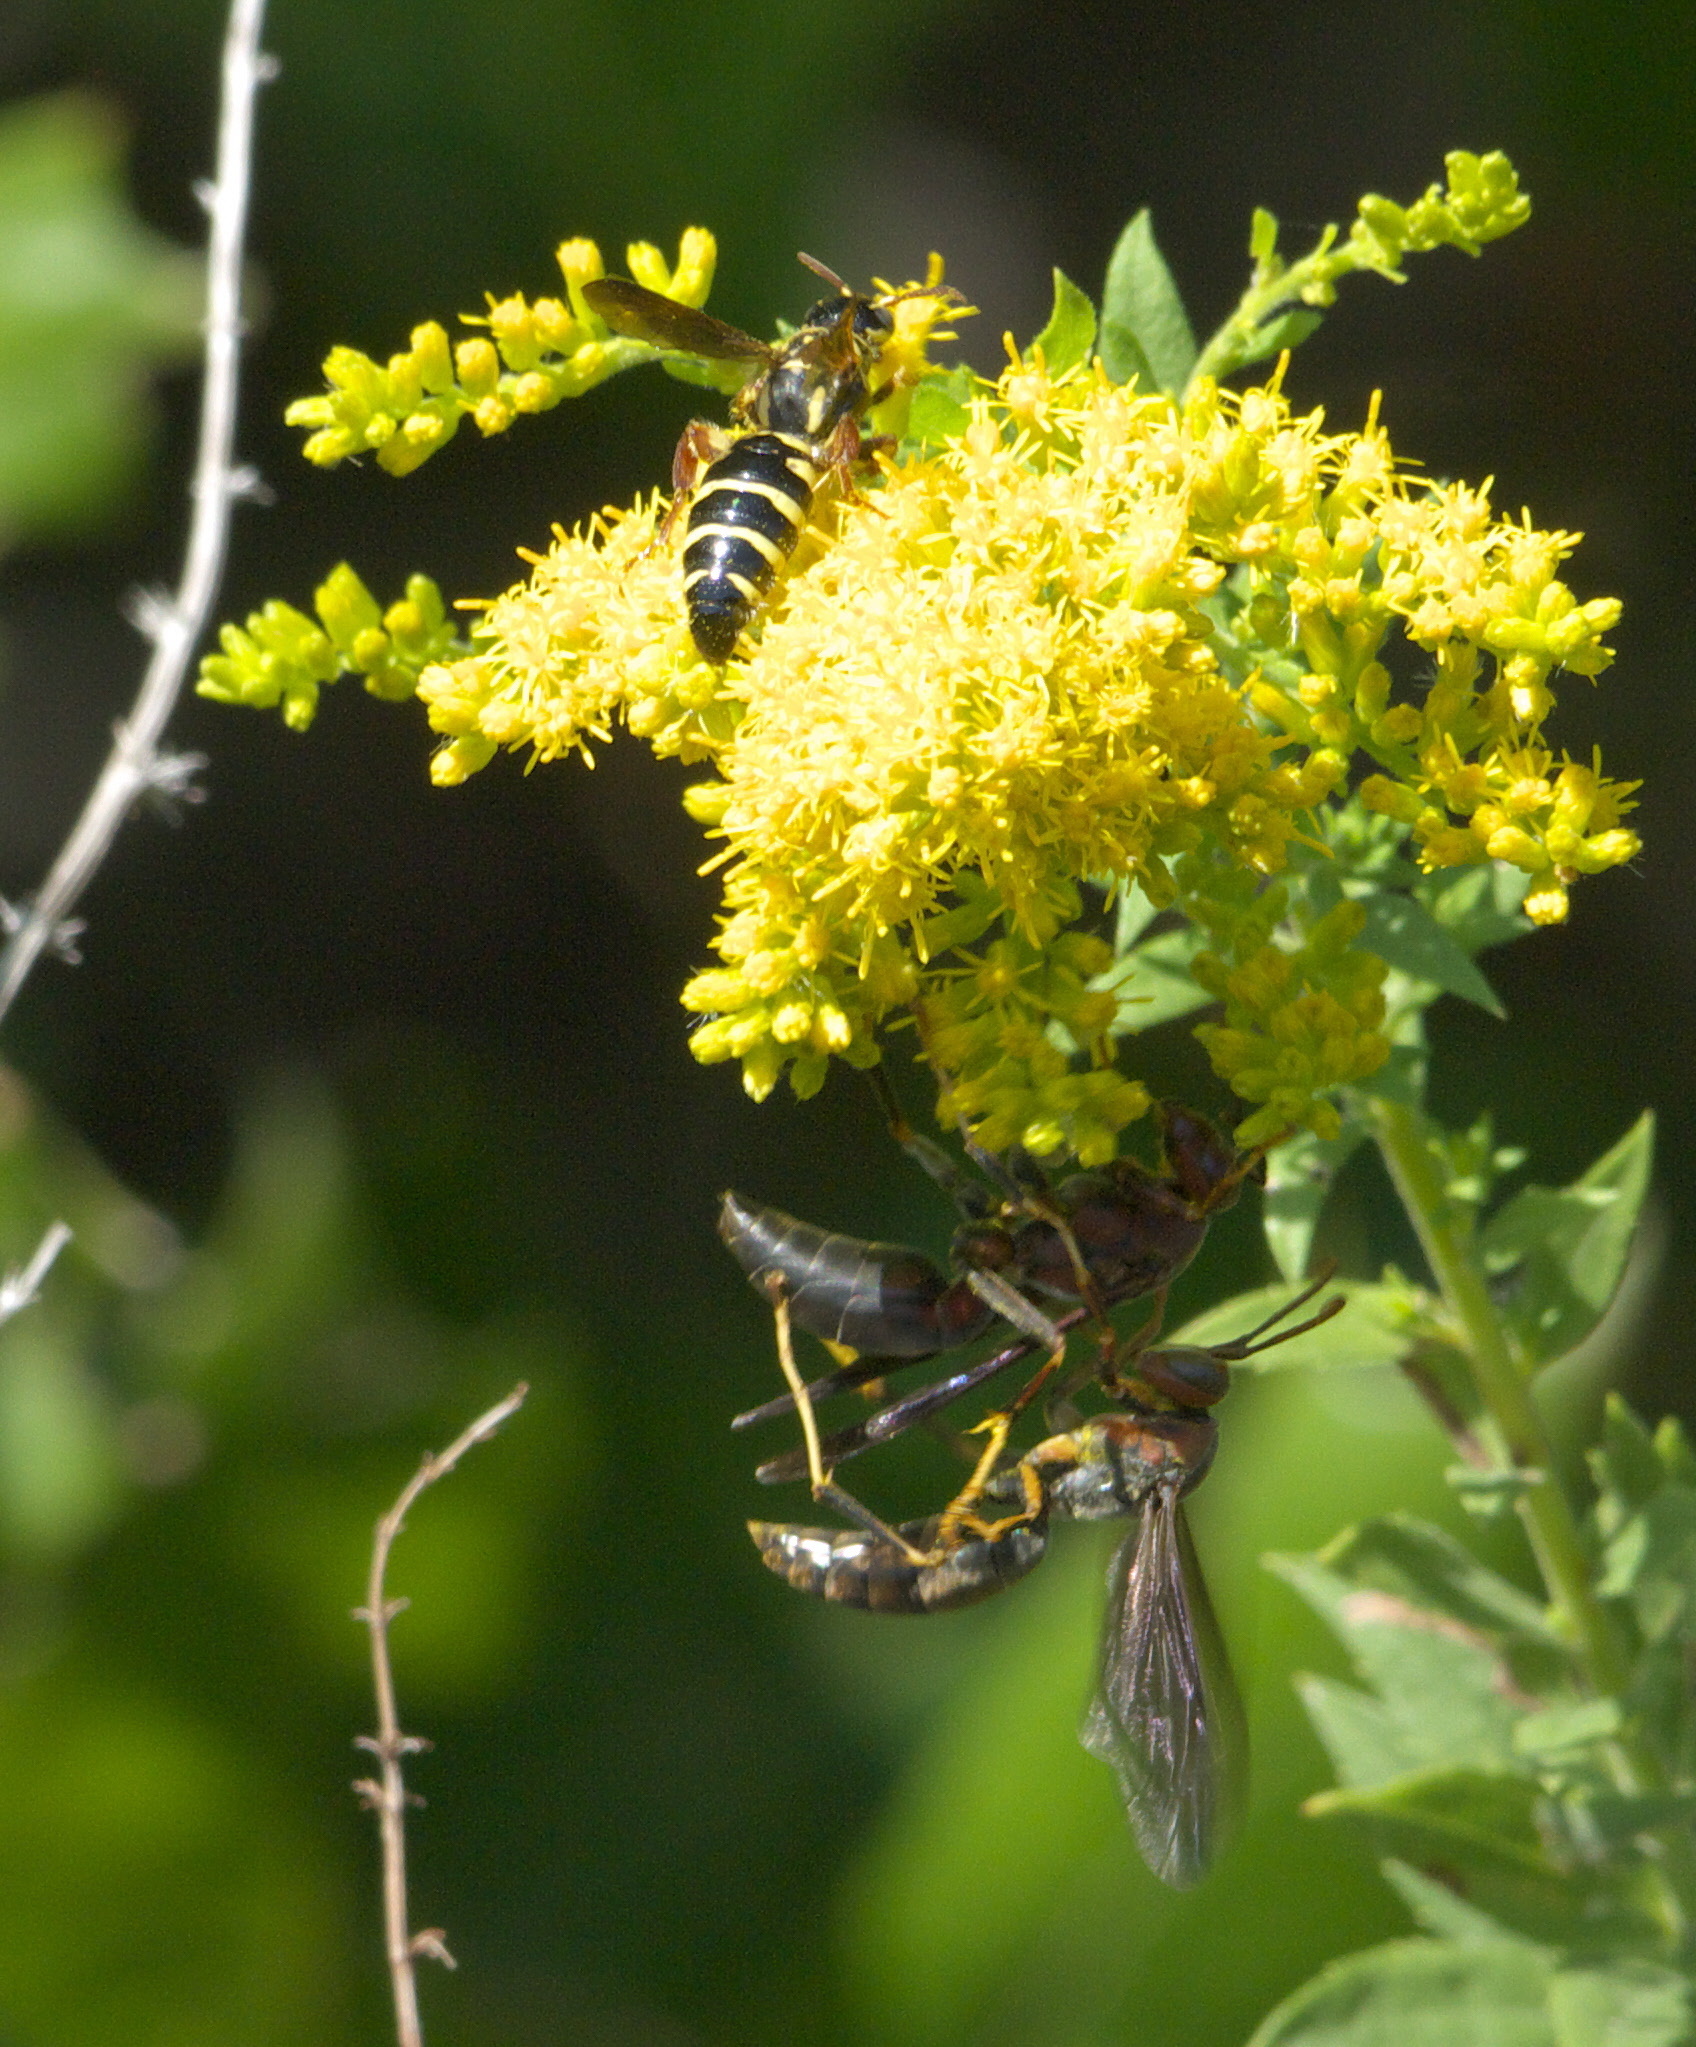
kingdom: Animalia
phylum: Arthropoda
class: Insecta
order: Hymenoptera
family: Tiphiidae
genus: Myzinum
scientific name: Myzinum quinquecinctum
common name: Five-banded thynnid wasp
